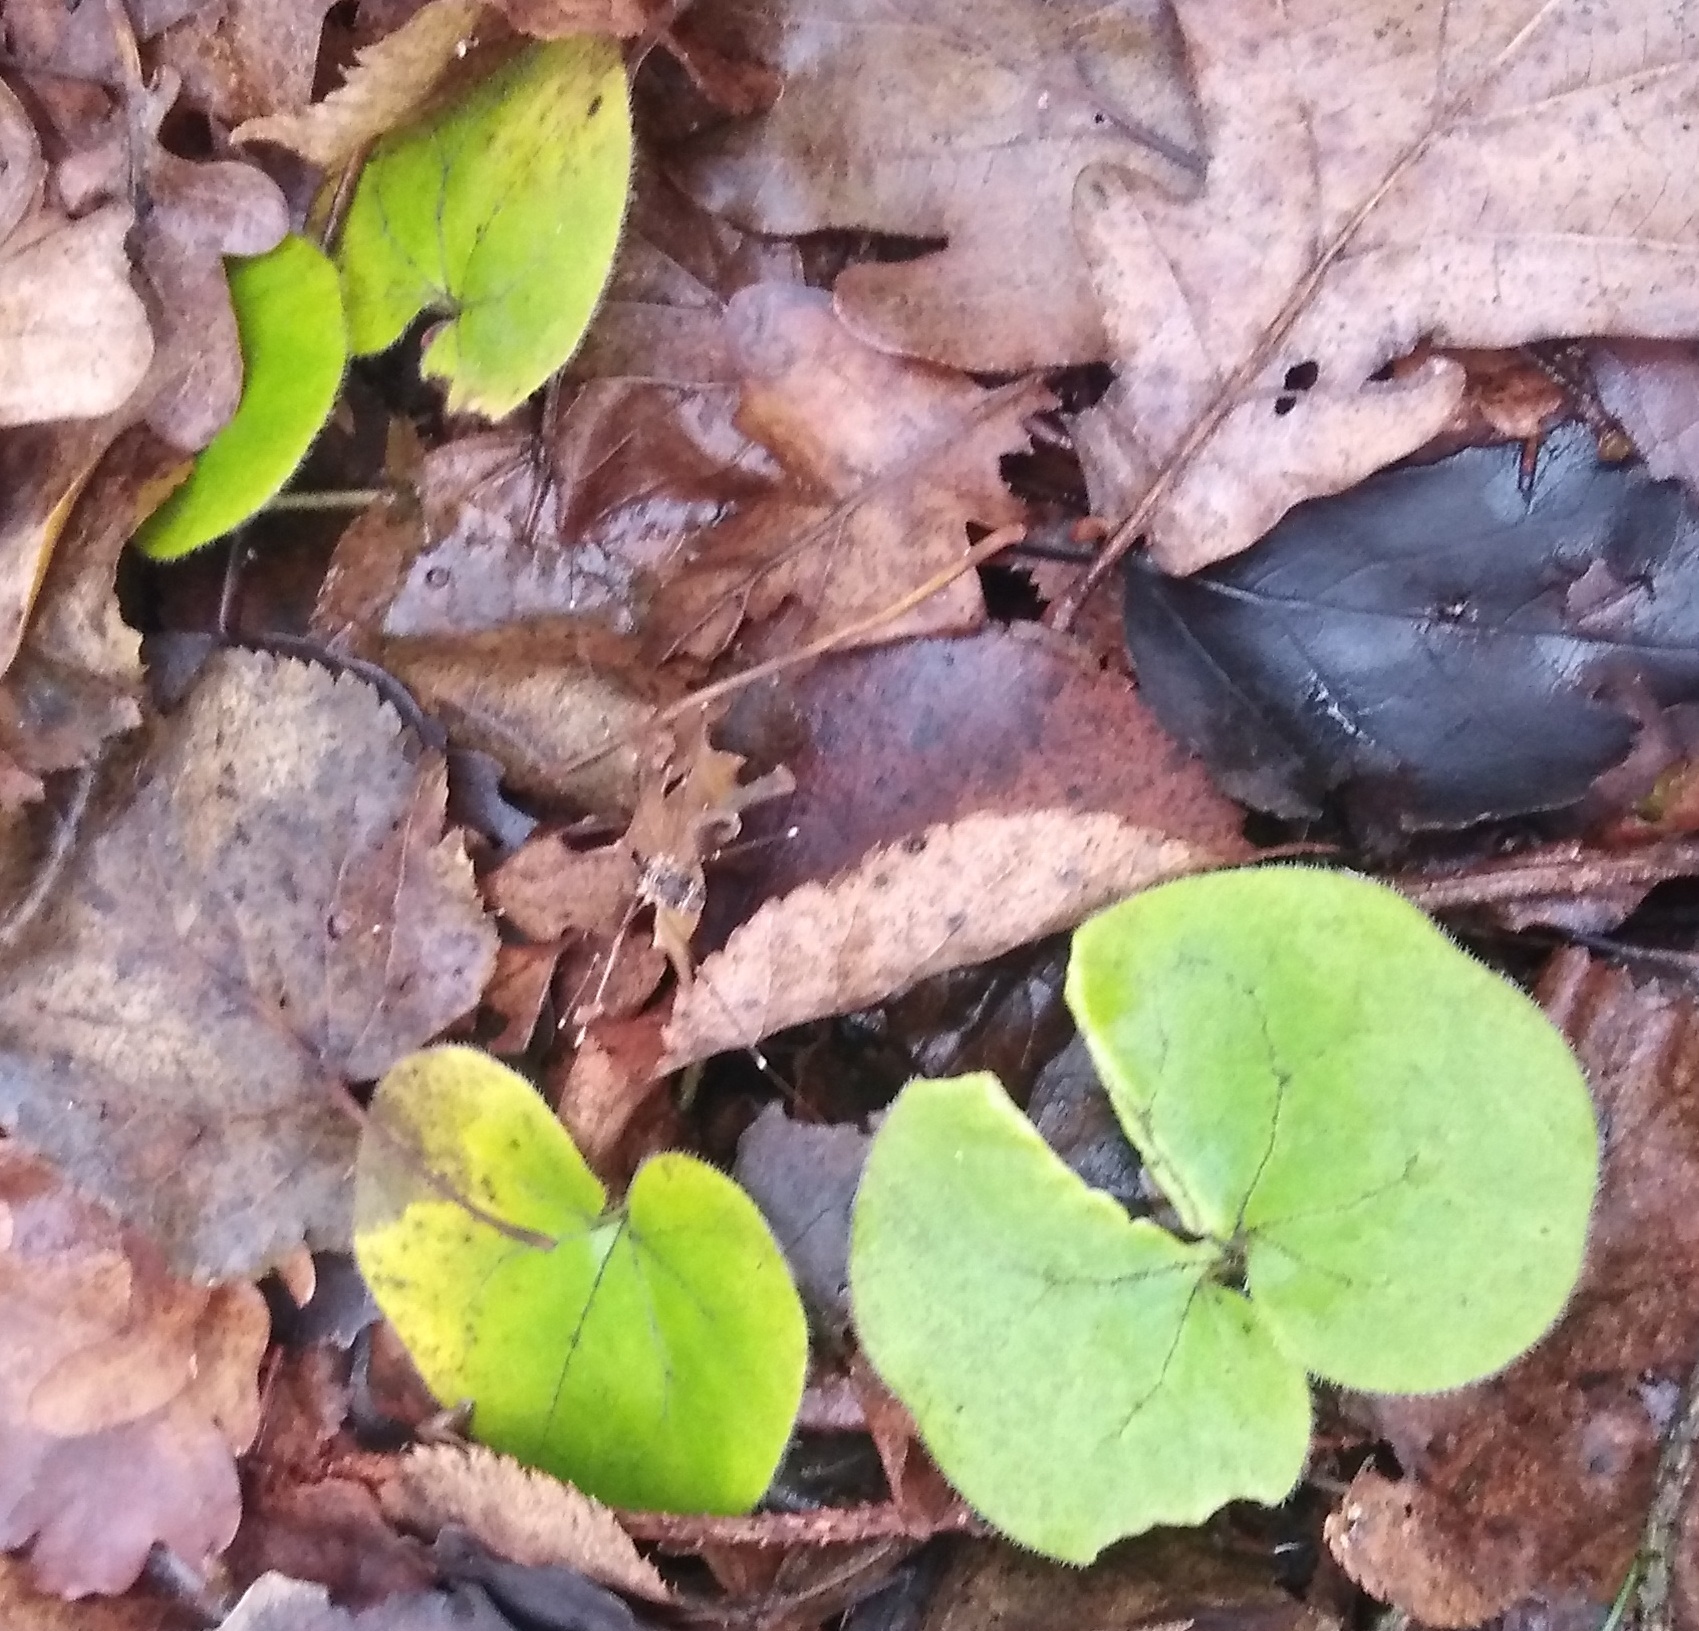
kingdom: Plantae
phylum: Tracheophyta
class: Magnoliopsida
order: Piperales
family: Aristolochiaceae
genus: Asarum
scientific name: Asarum europaeum
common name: Asarabacca
